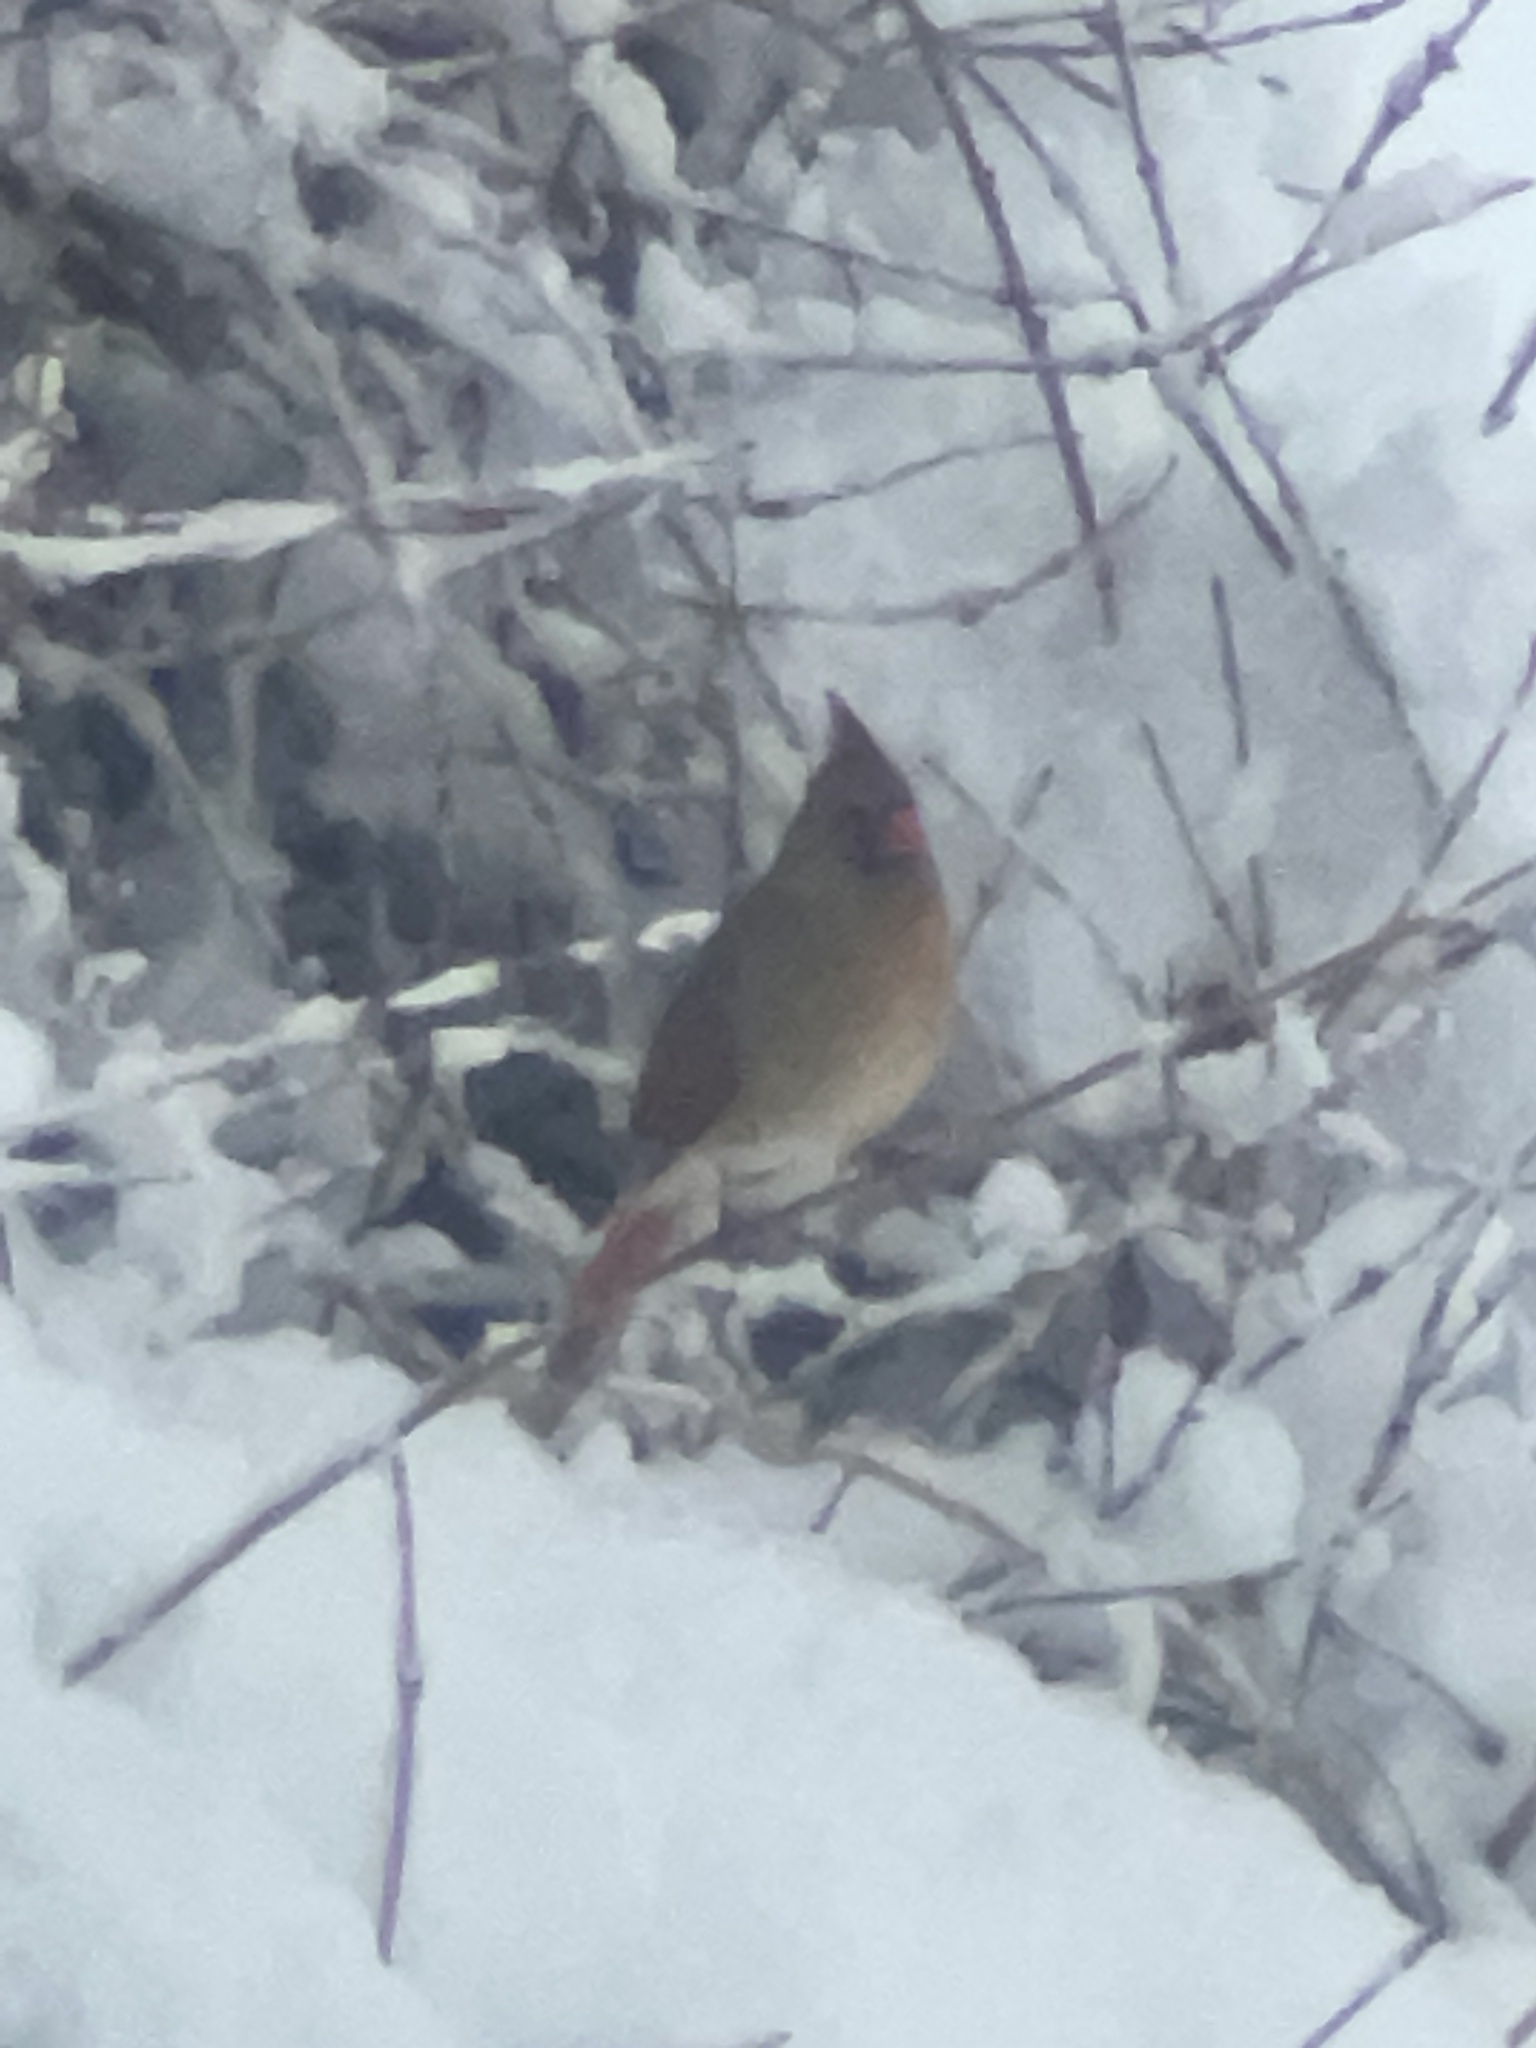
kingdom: Animalia
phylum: Chordata
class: Aves
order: Passeriformes
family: Cardinalidae
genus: Cardinalis
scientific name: Cardinalis cardinalis
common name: Northern cardinal
